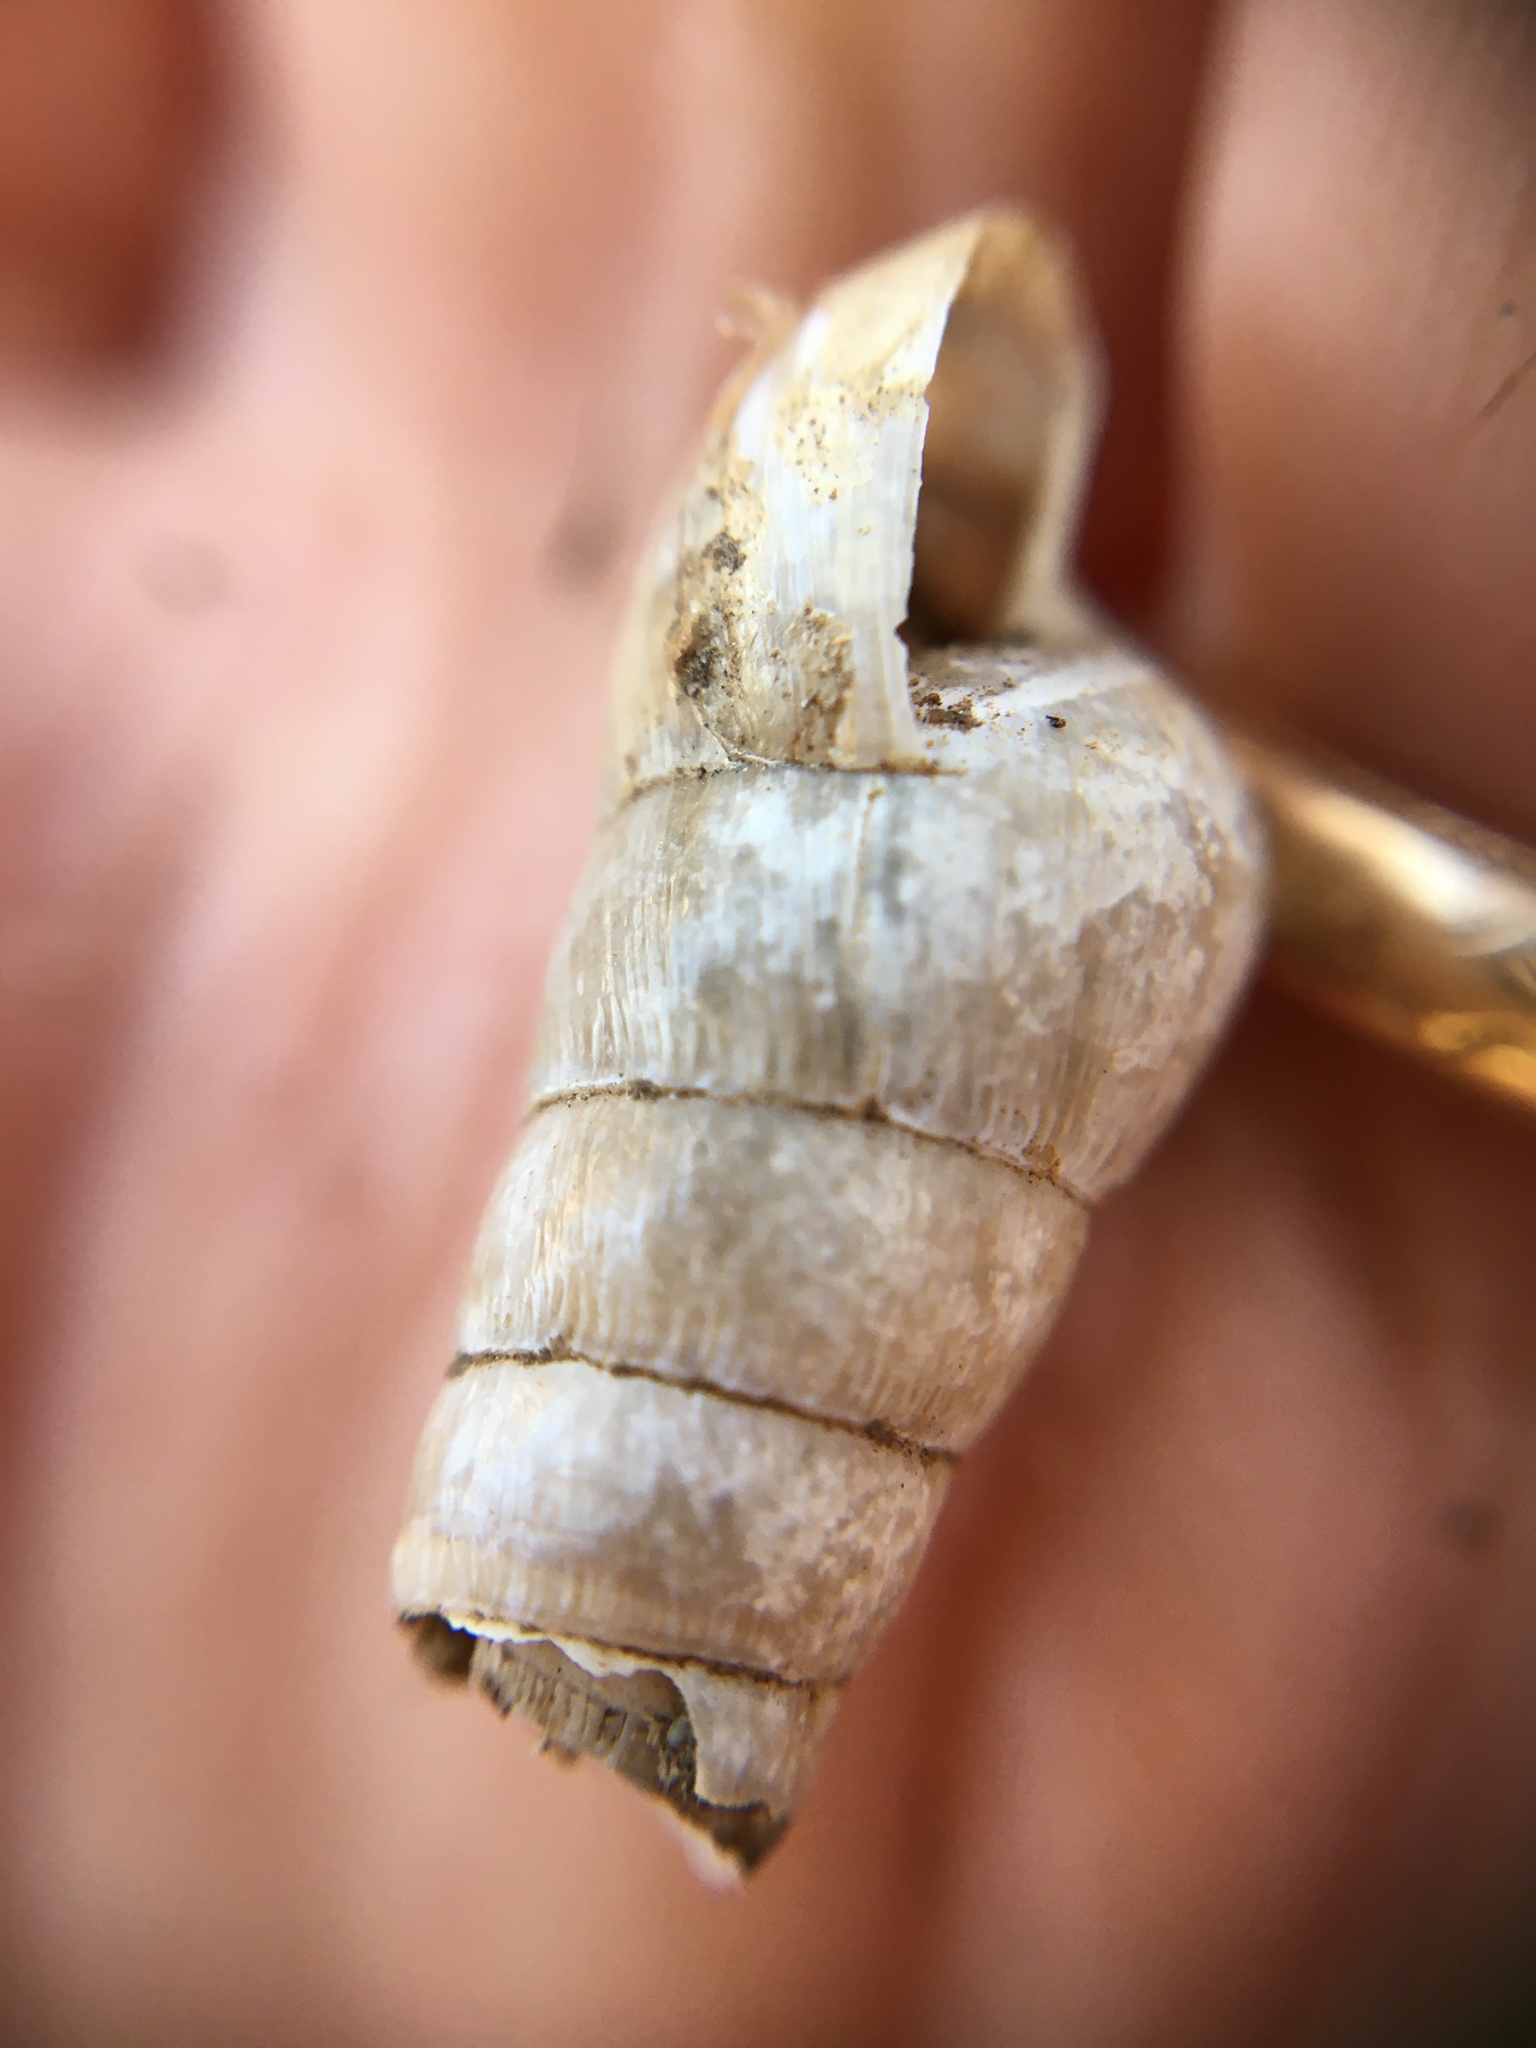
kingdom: Animalia
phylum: Mollusca
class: Gastropoda
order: Stylommatophora
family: Achatinidae
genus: Rumina
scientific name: Rumina decollata
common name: Decollate snail
